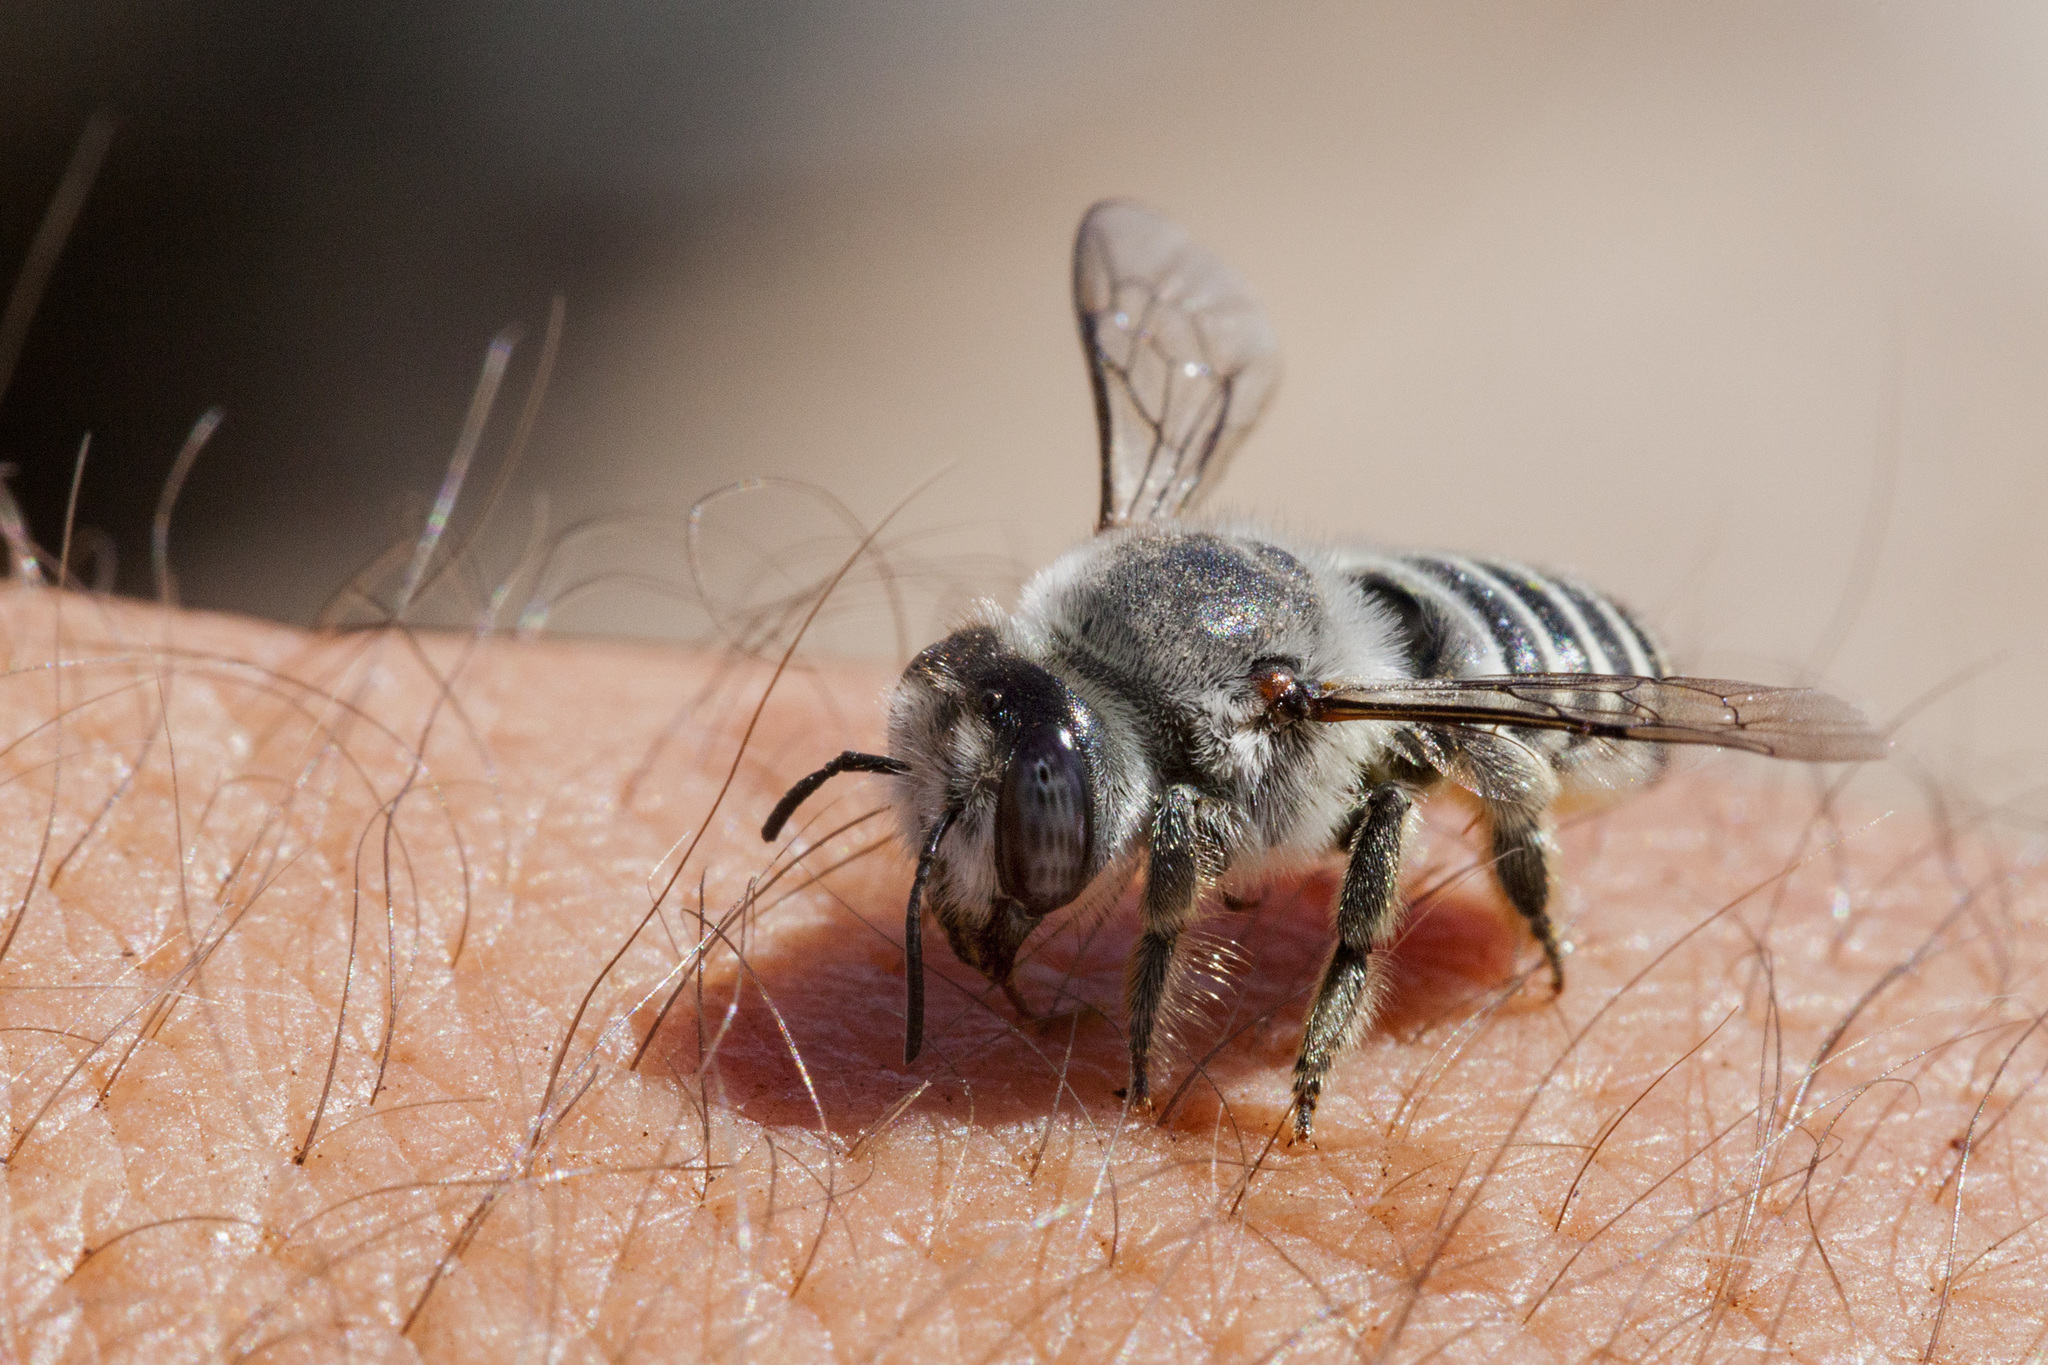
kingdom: Animalia
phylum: Arthropoda
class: Insecta
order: Hymenoptera
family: Megachilidae
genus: Megachile
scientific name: Megachile
